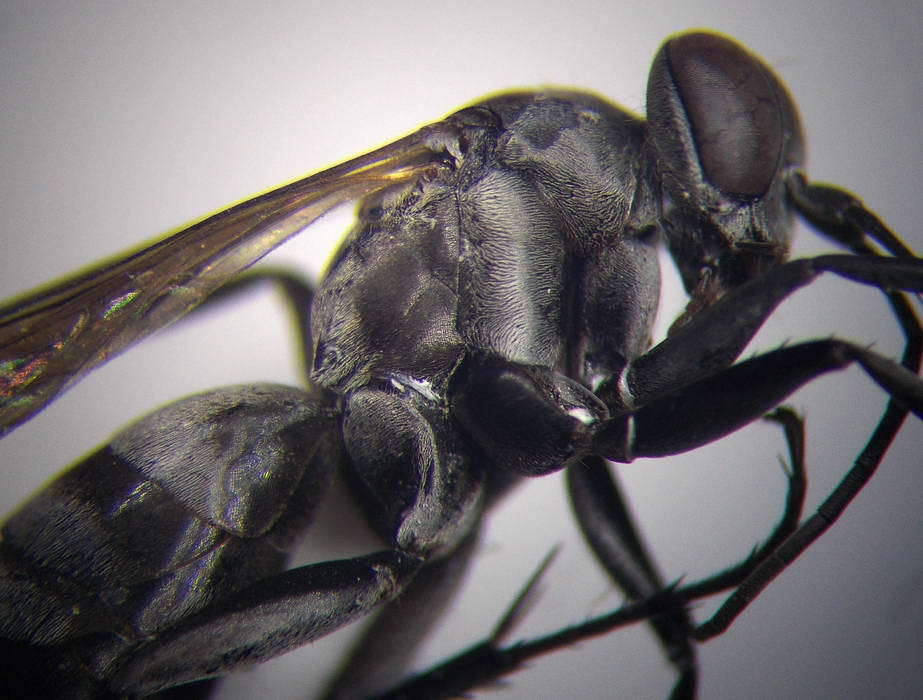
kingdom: Animalia
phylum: Arthropoda
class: Insecta
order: Hymenoptera
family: Pompilidae
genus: Aporinellus
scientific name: Aporinellus sexmaculatus
